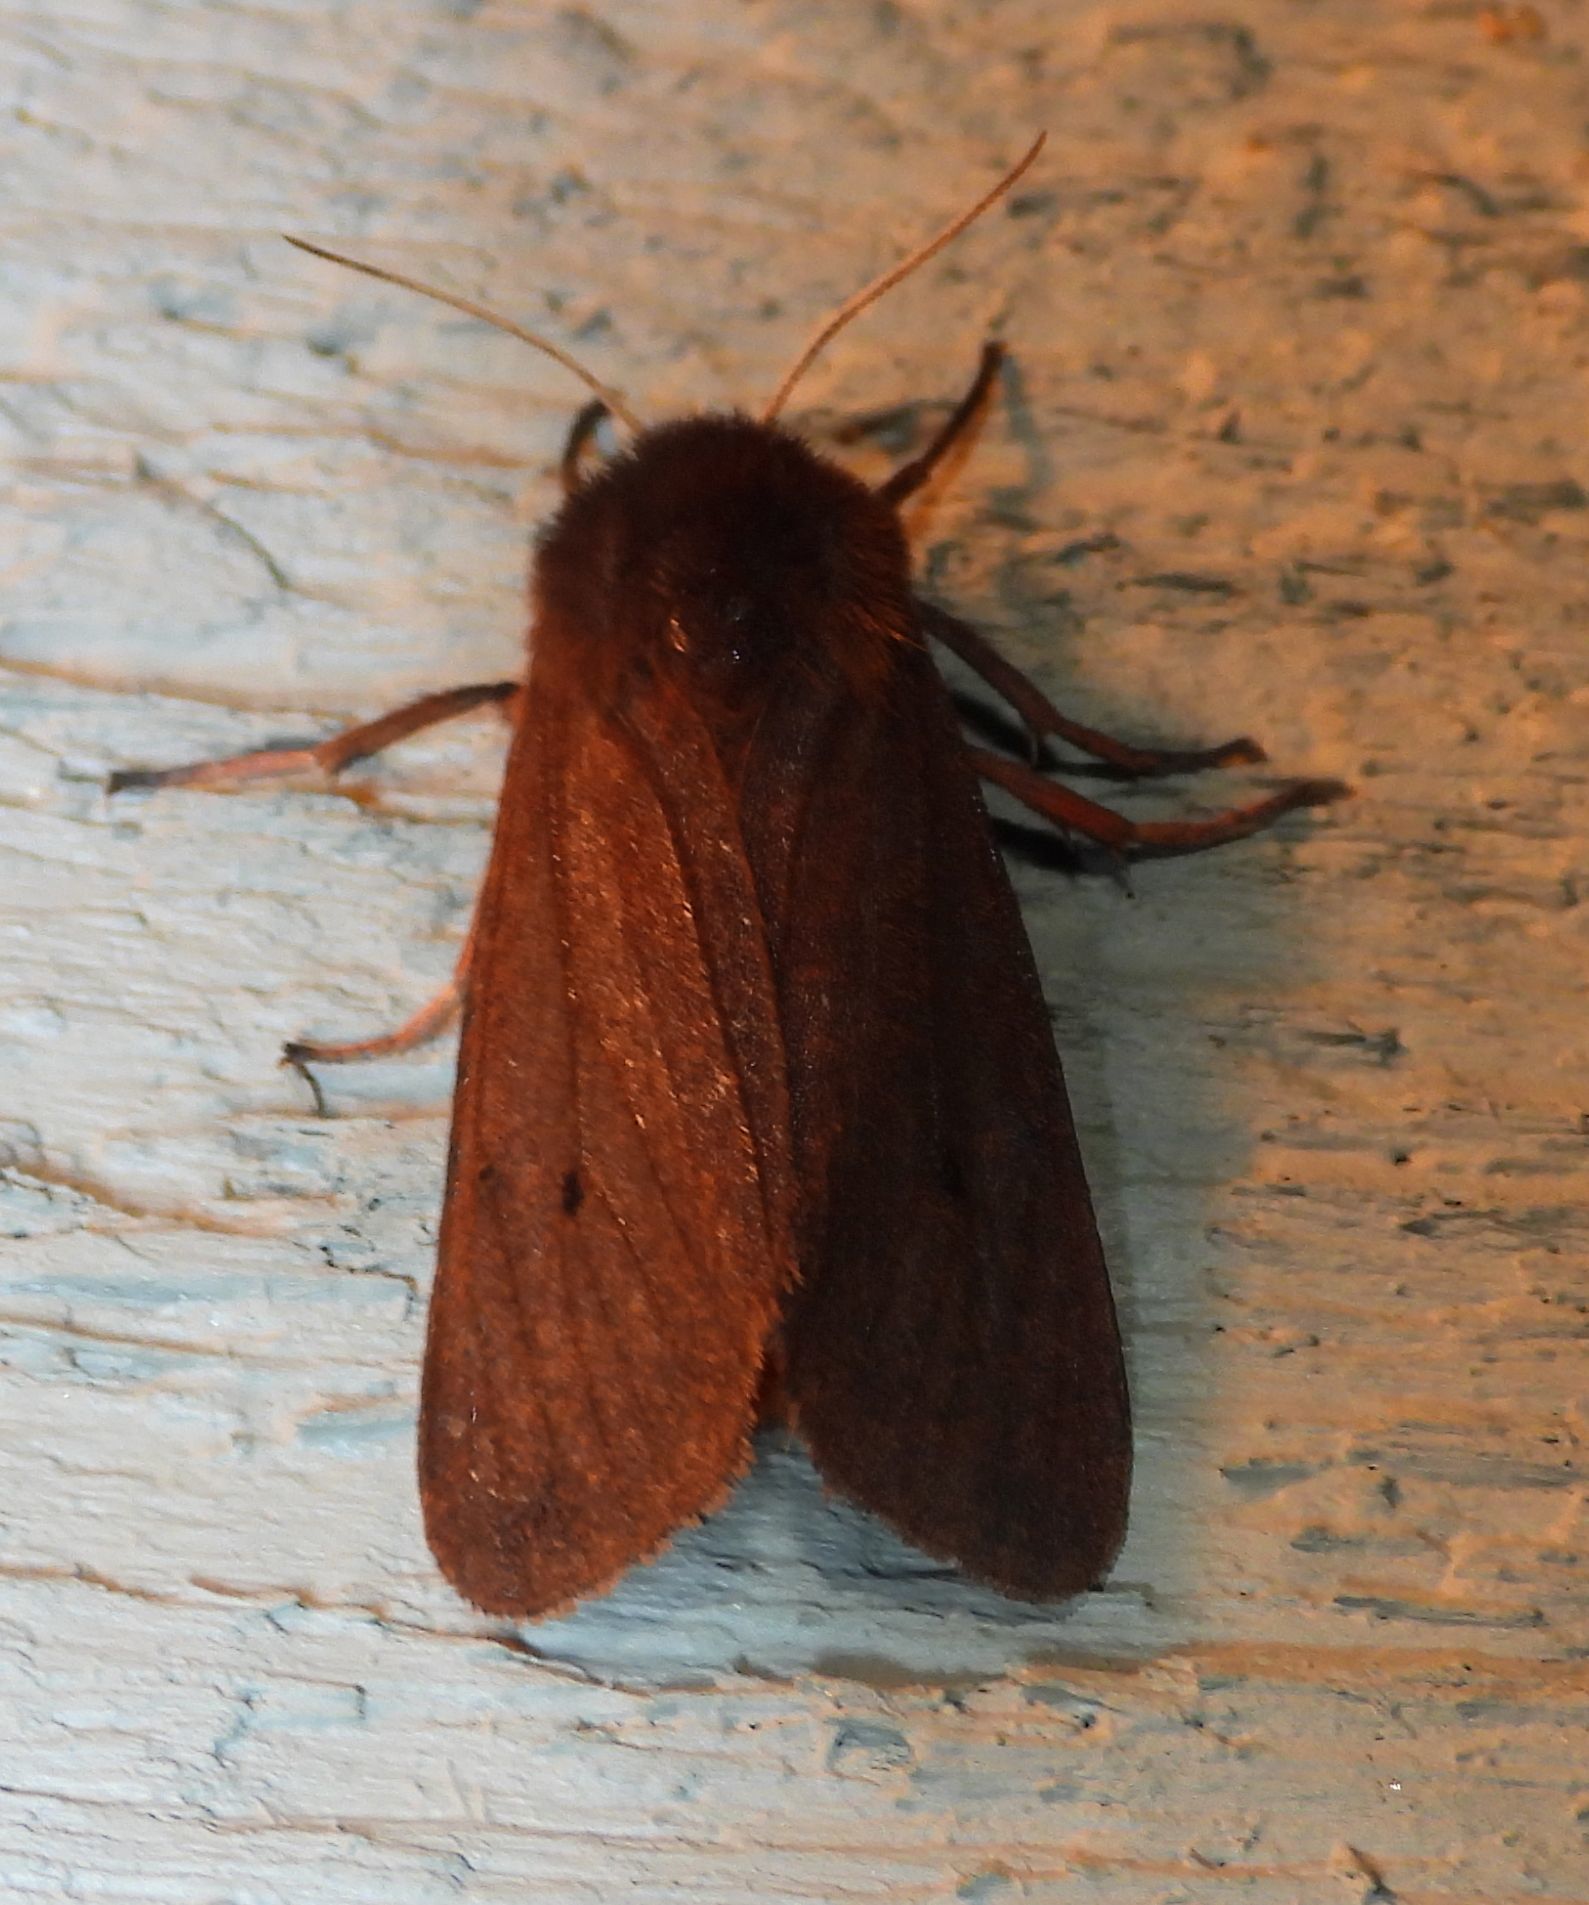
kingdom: Animalia
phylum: Arthropoda
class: Insecta
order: Lepidoptera
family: Erebidae
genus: Phragmatobia
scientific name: Phragmatobia fuliginosa
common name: Ruby tiger
